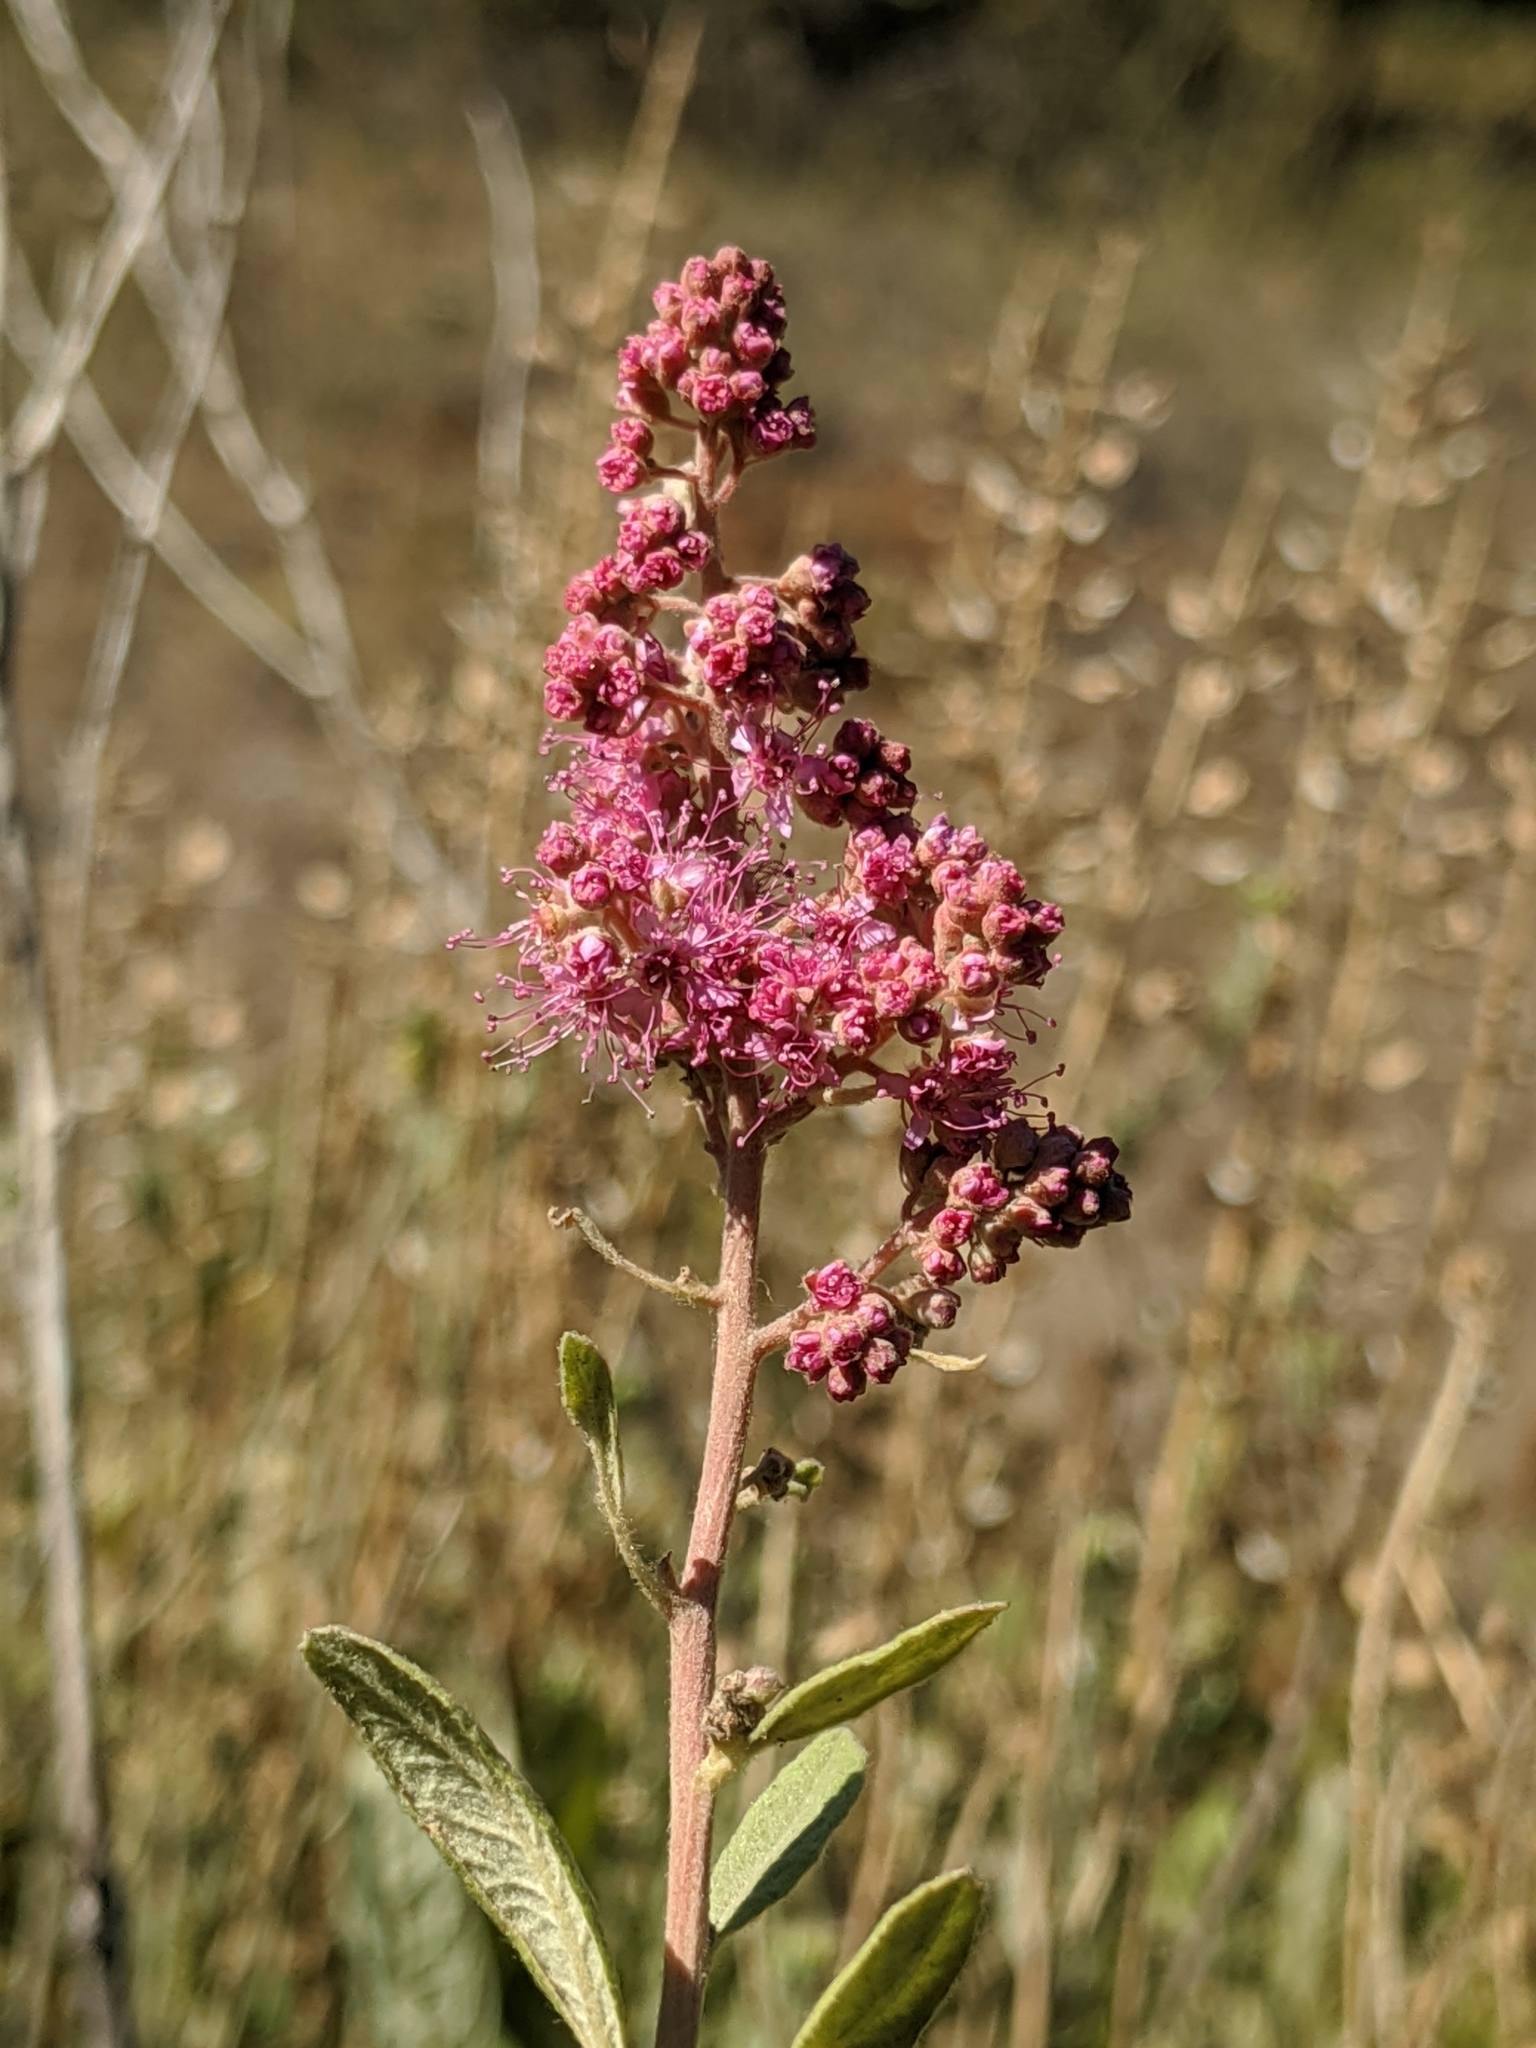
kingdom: Plantae
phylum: Tracheophyta
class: Magnoliopsida
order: Rosales
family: Rosaceae
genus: Spiraea
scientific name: Spiraea douglasii
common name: Steeplebush
